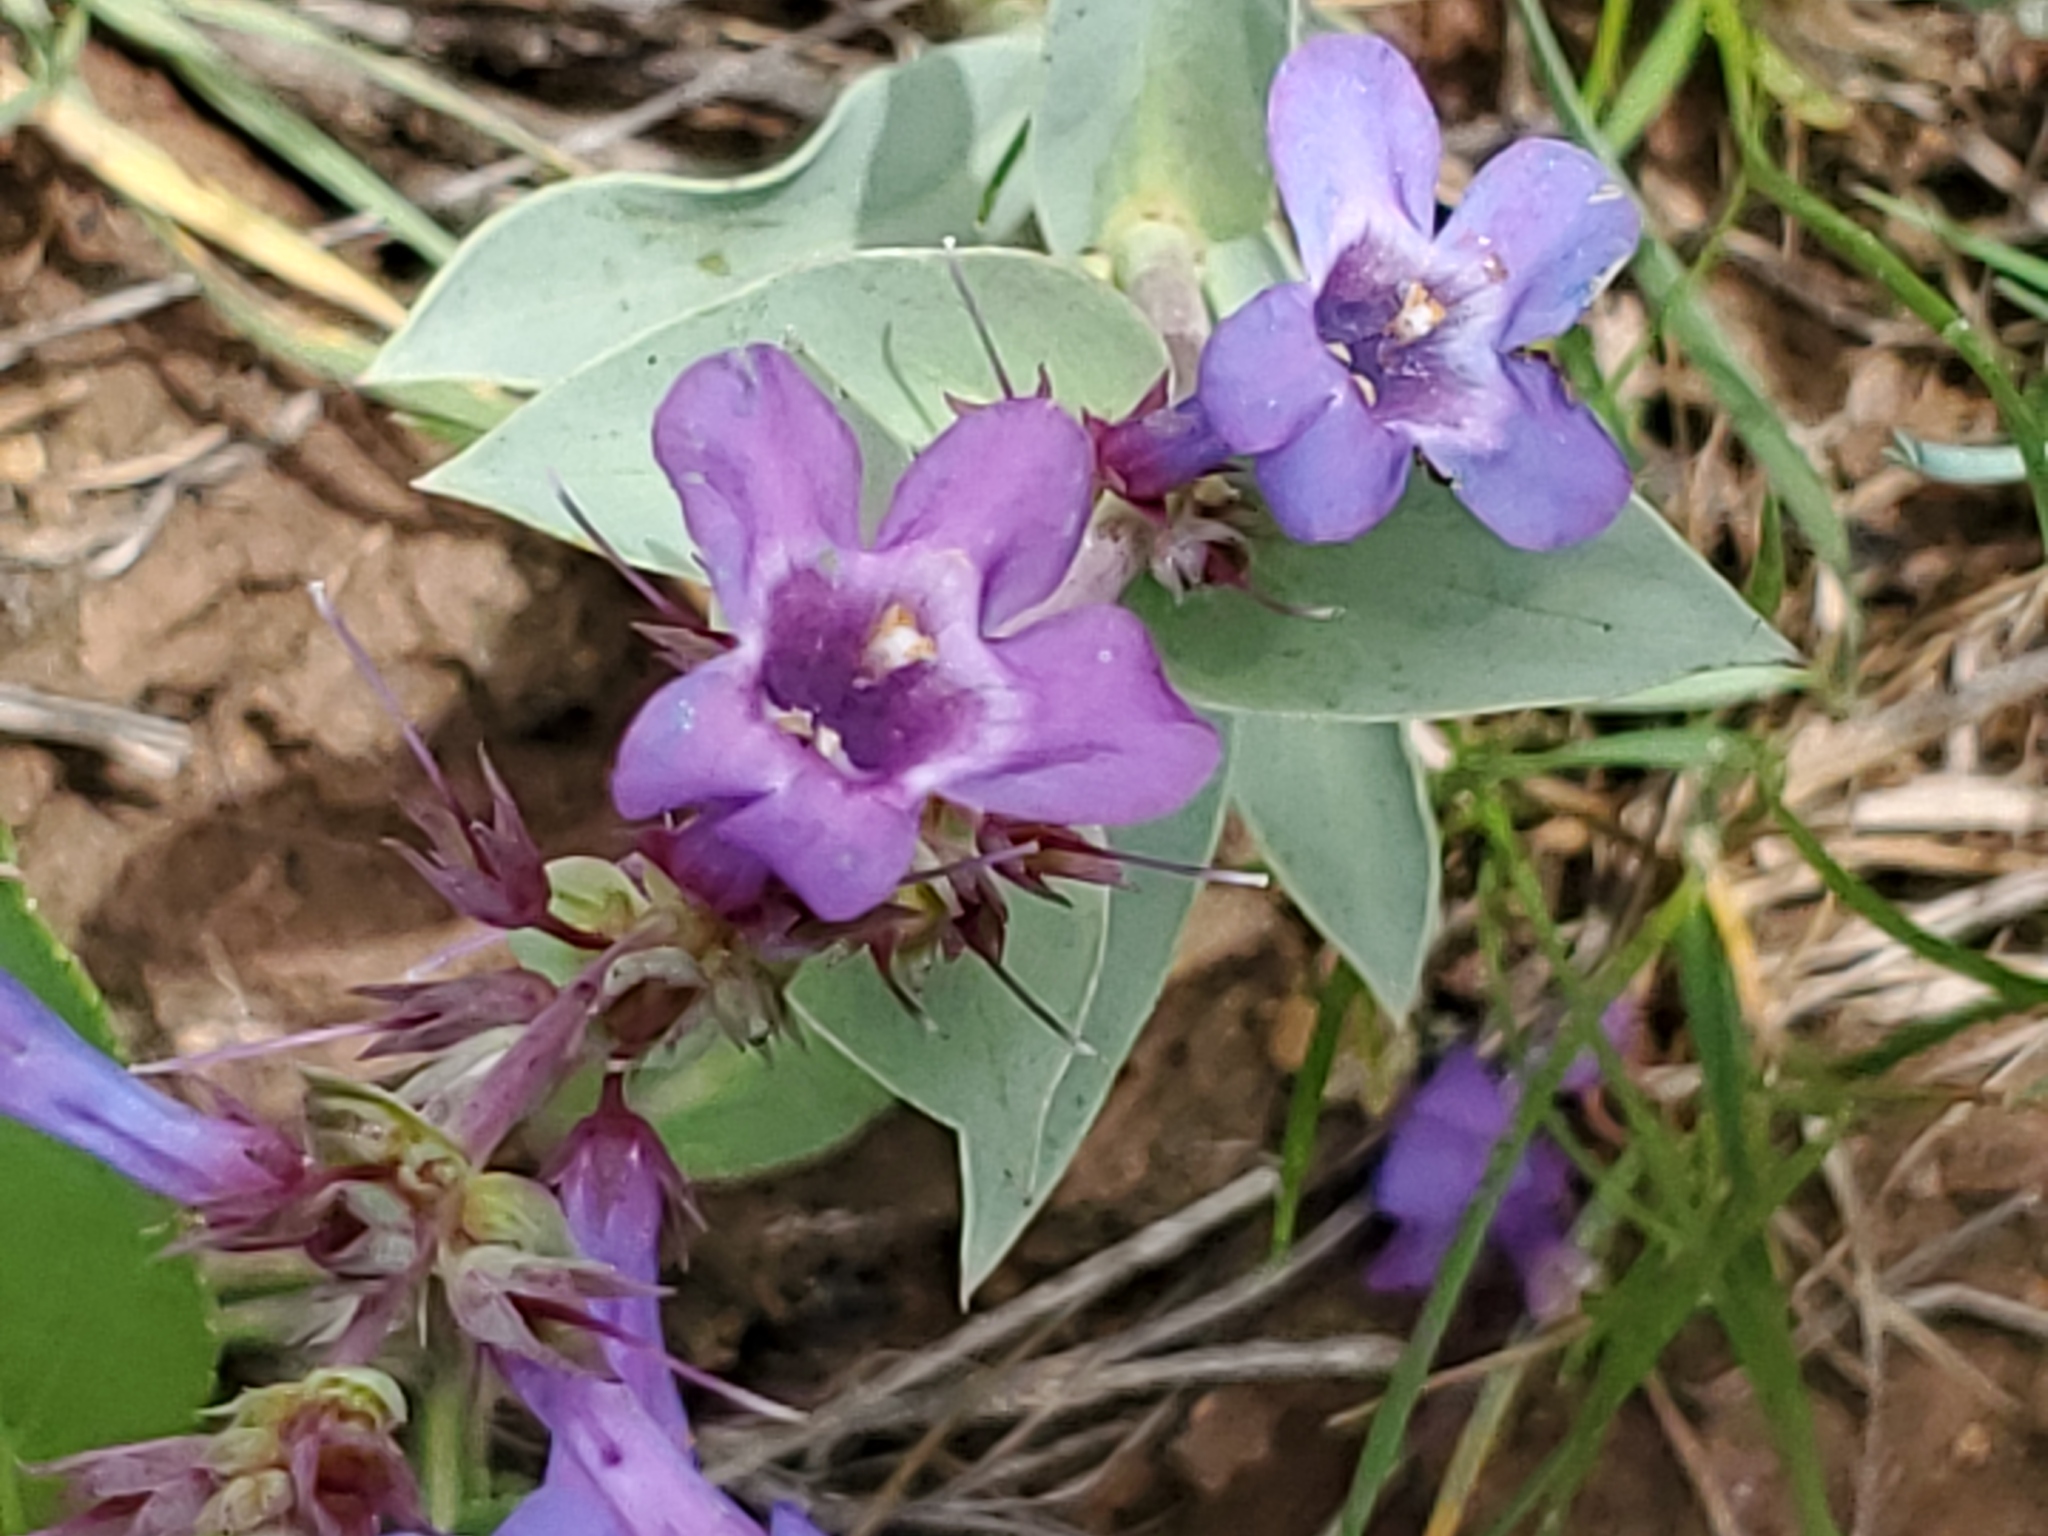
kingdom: Plantae
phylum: Tracheophyta
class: Magnoliopsida
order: Lamiales
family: Plantaginaceae
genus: Penstemon
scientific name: Penstemon nitidus
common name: Shining penstemon
